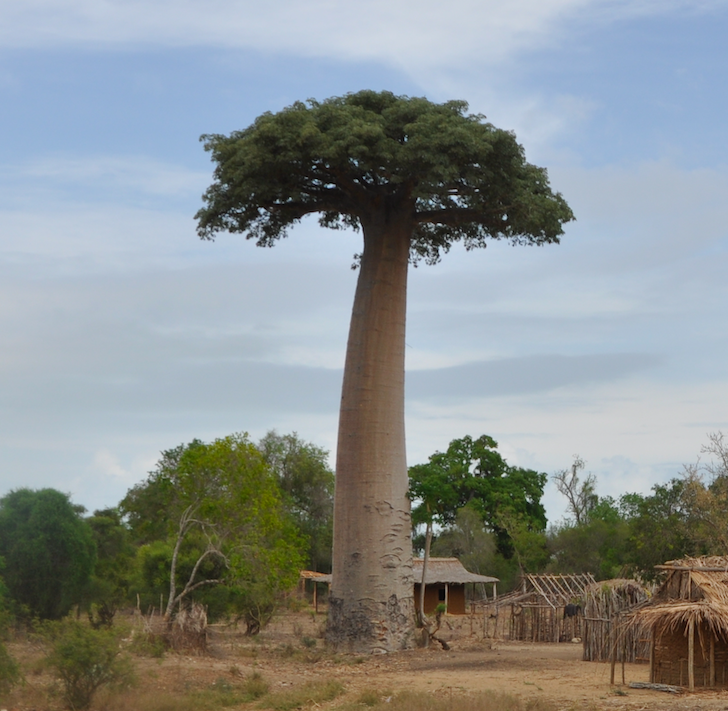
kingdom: Plantae
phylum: Tracheophyta
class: Magnoliopsida
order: Malvales
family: Malvaceae
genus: Adansonia
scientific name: Adansonia grandidieri
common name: Grandidier's baobab
